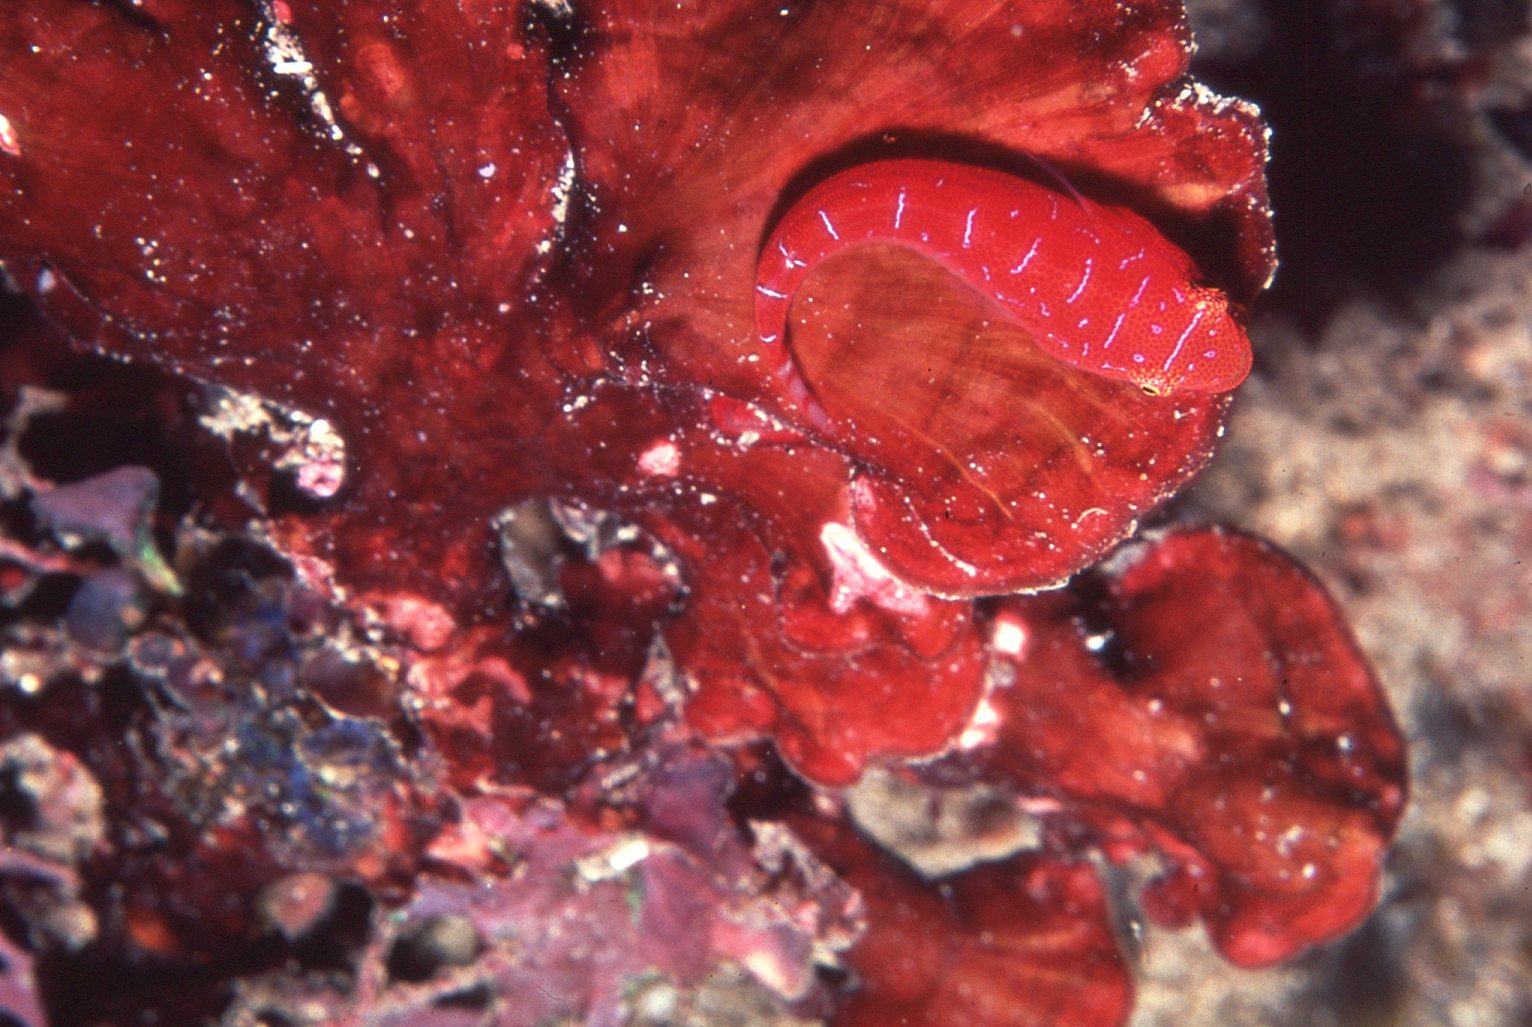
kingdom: Animalia
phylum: Chordata
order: Gobiesociformes
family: Gobiesocidae
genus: Cochleoceps
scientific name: Cochleoceps orientalis
